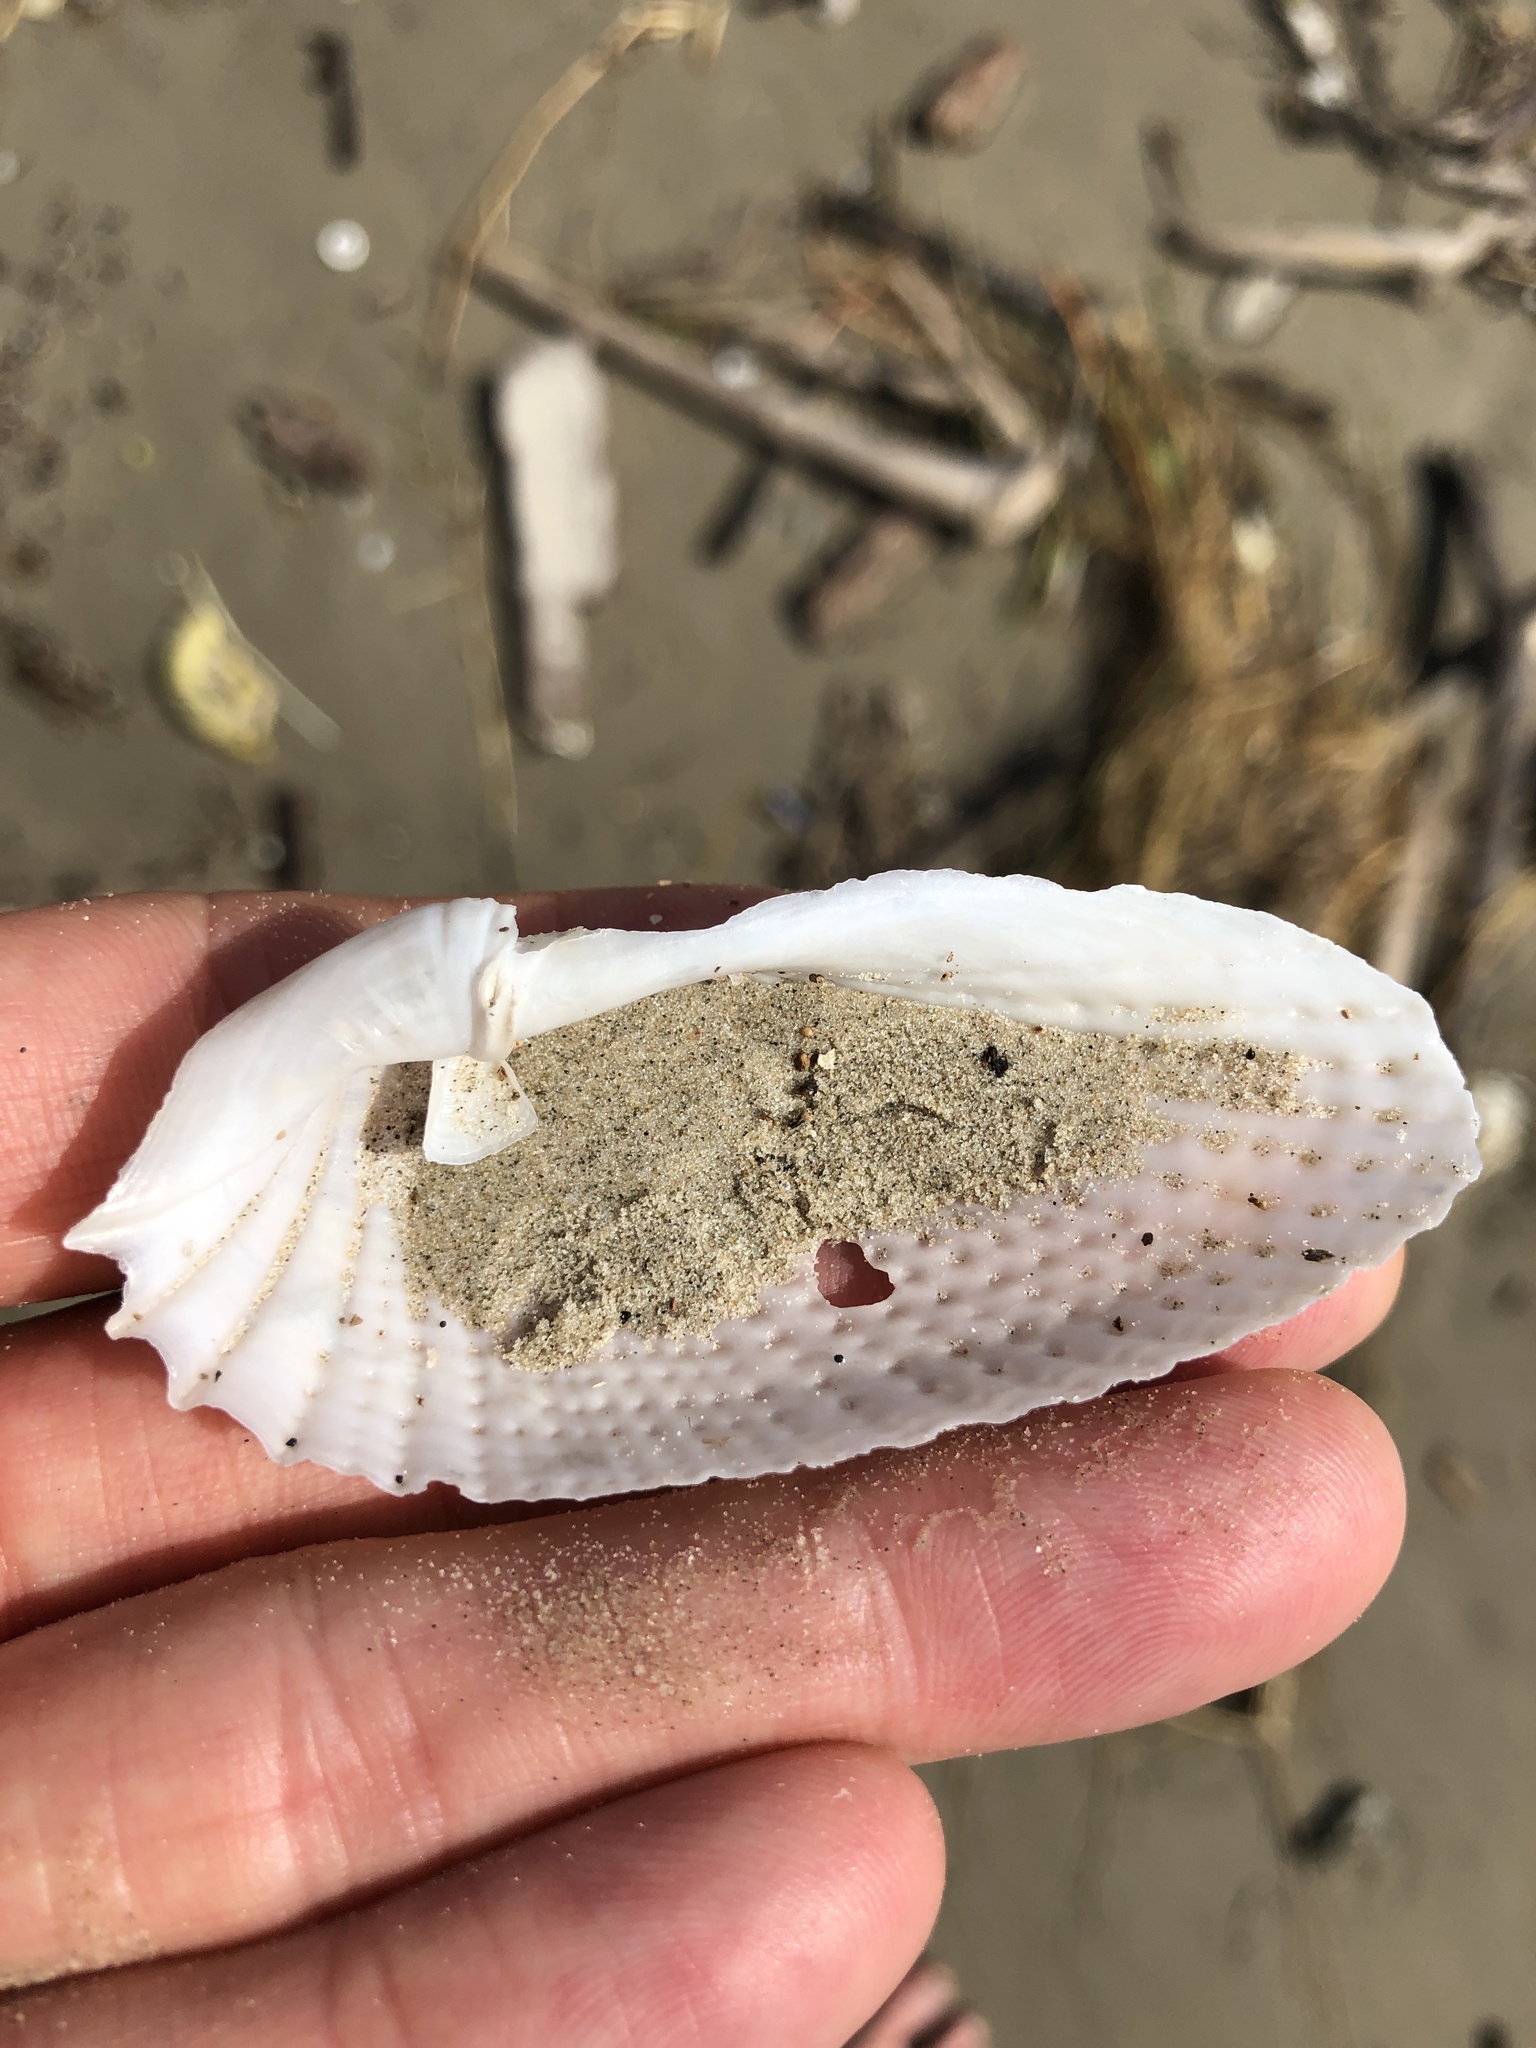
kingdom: Animalia
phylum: Mollusca
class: Bivalvia
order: Myida
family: Pholadidae
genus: Cyrtopleura
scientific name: Cyrtopleura costata
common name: Angel wing
